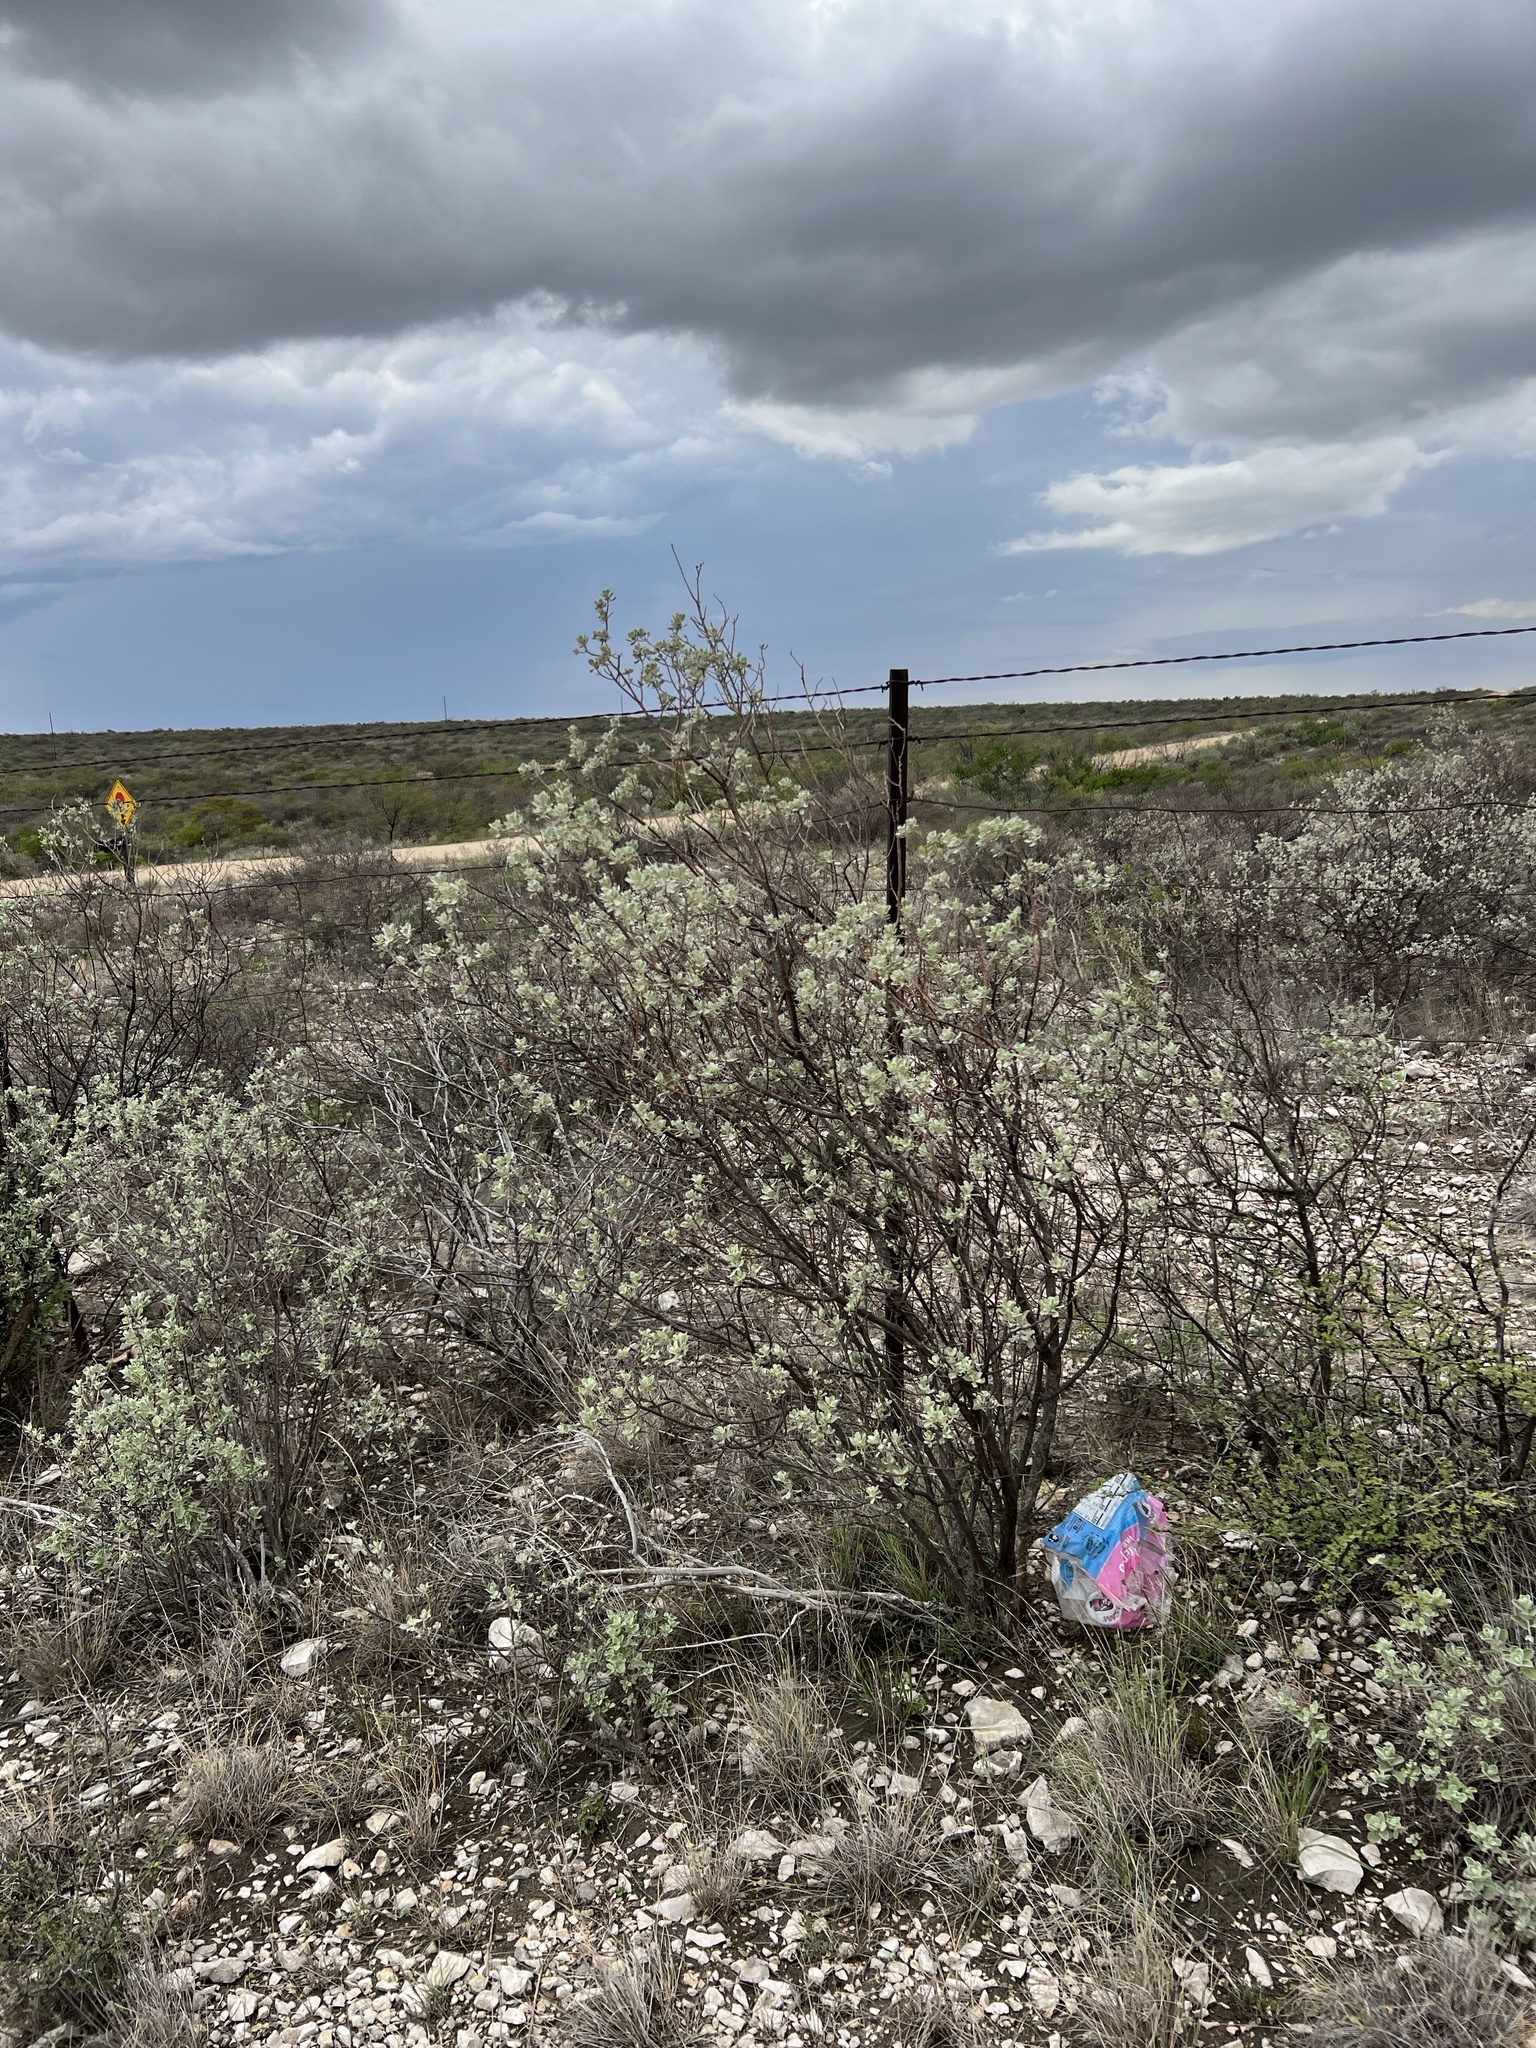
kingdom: Plantae
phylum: Tracheophyta
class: Magnoliopsida
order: Lamiales
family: Scrophulariaceae
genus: Leucophyllum
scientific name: Leucophyllum frutescens
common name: Texas silverleaf
